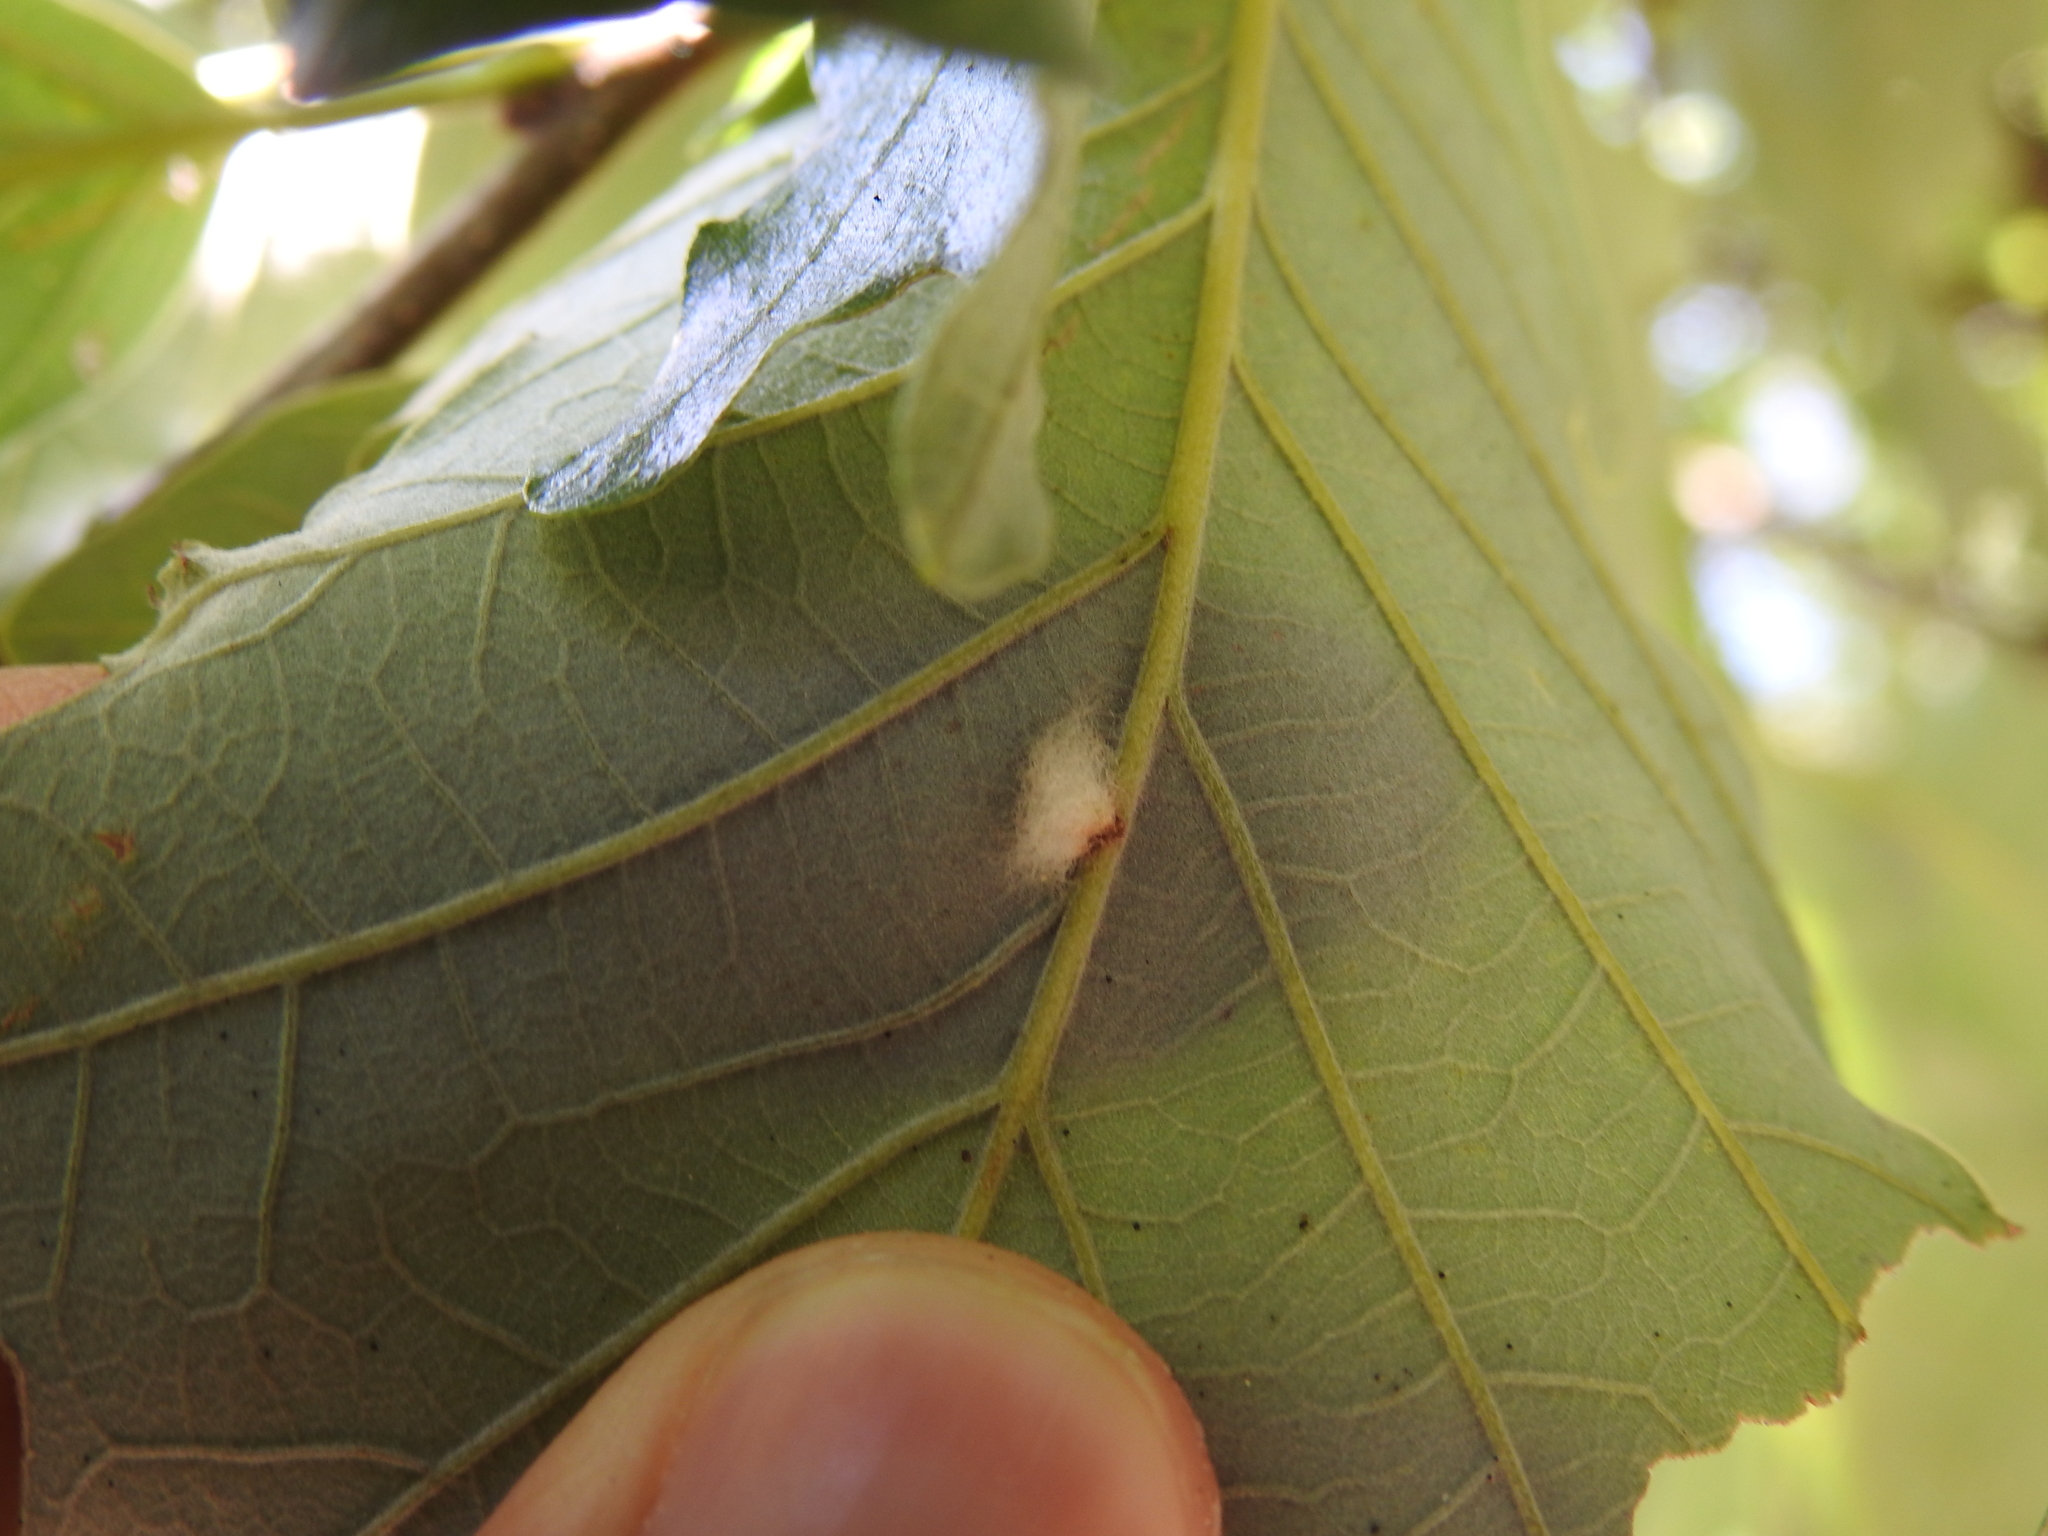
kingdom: Animalia
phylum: Arthropoda
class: Insecta
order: Hymenoptera
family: Cynipidae
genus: Andricus
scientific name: Andricus Druon ignotum
